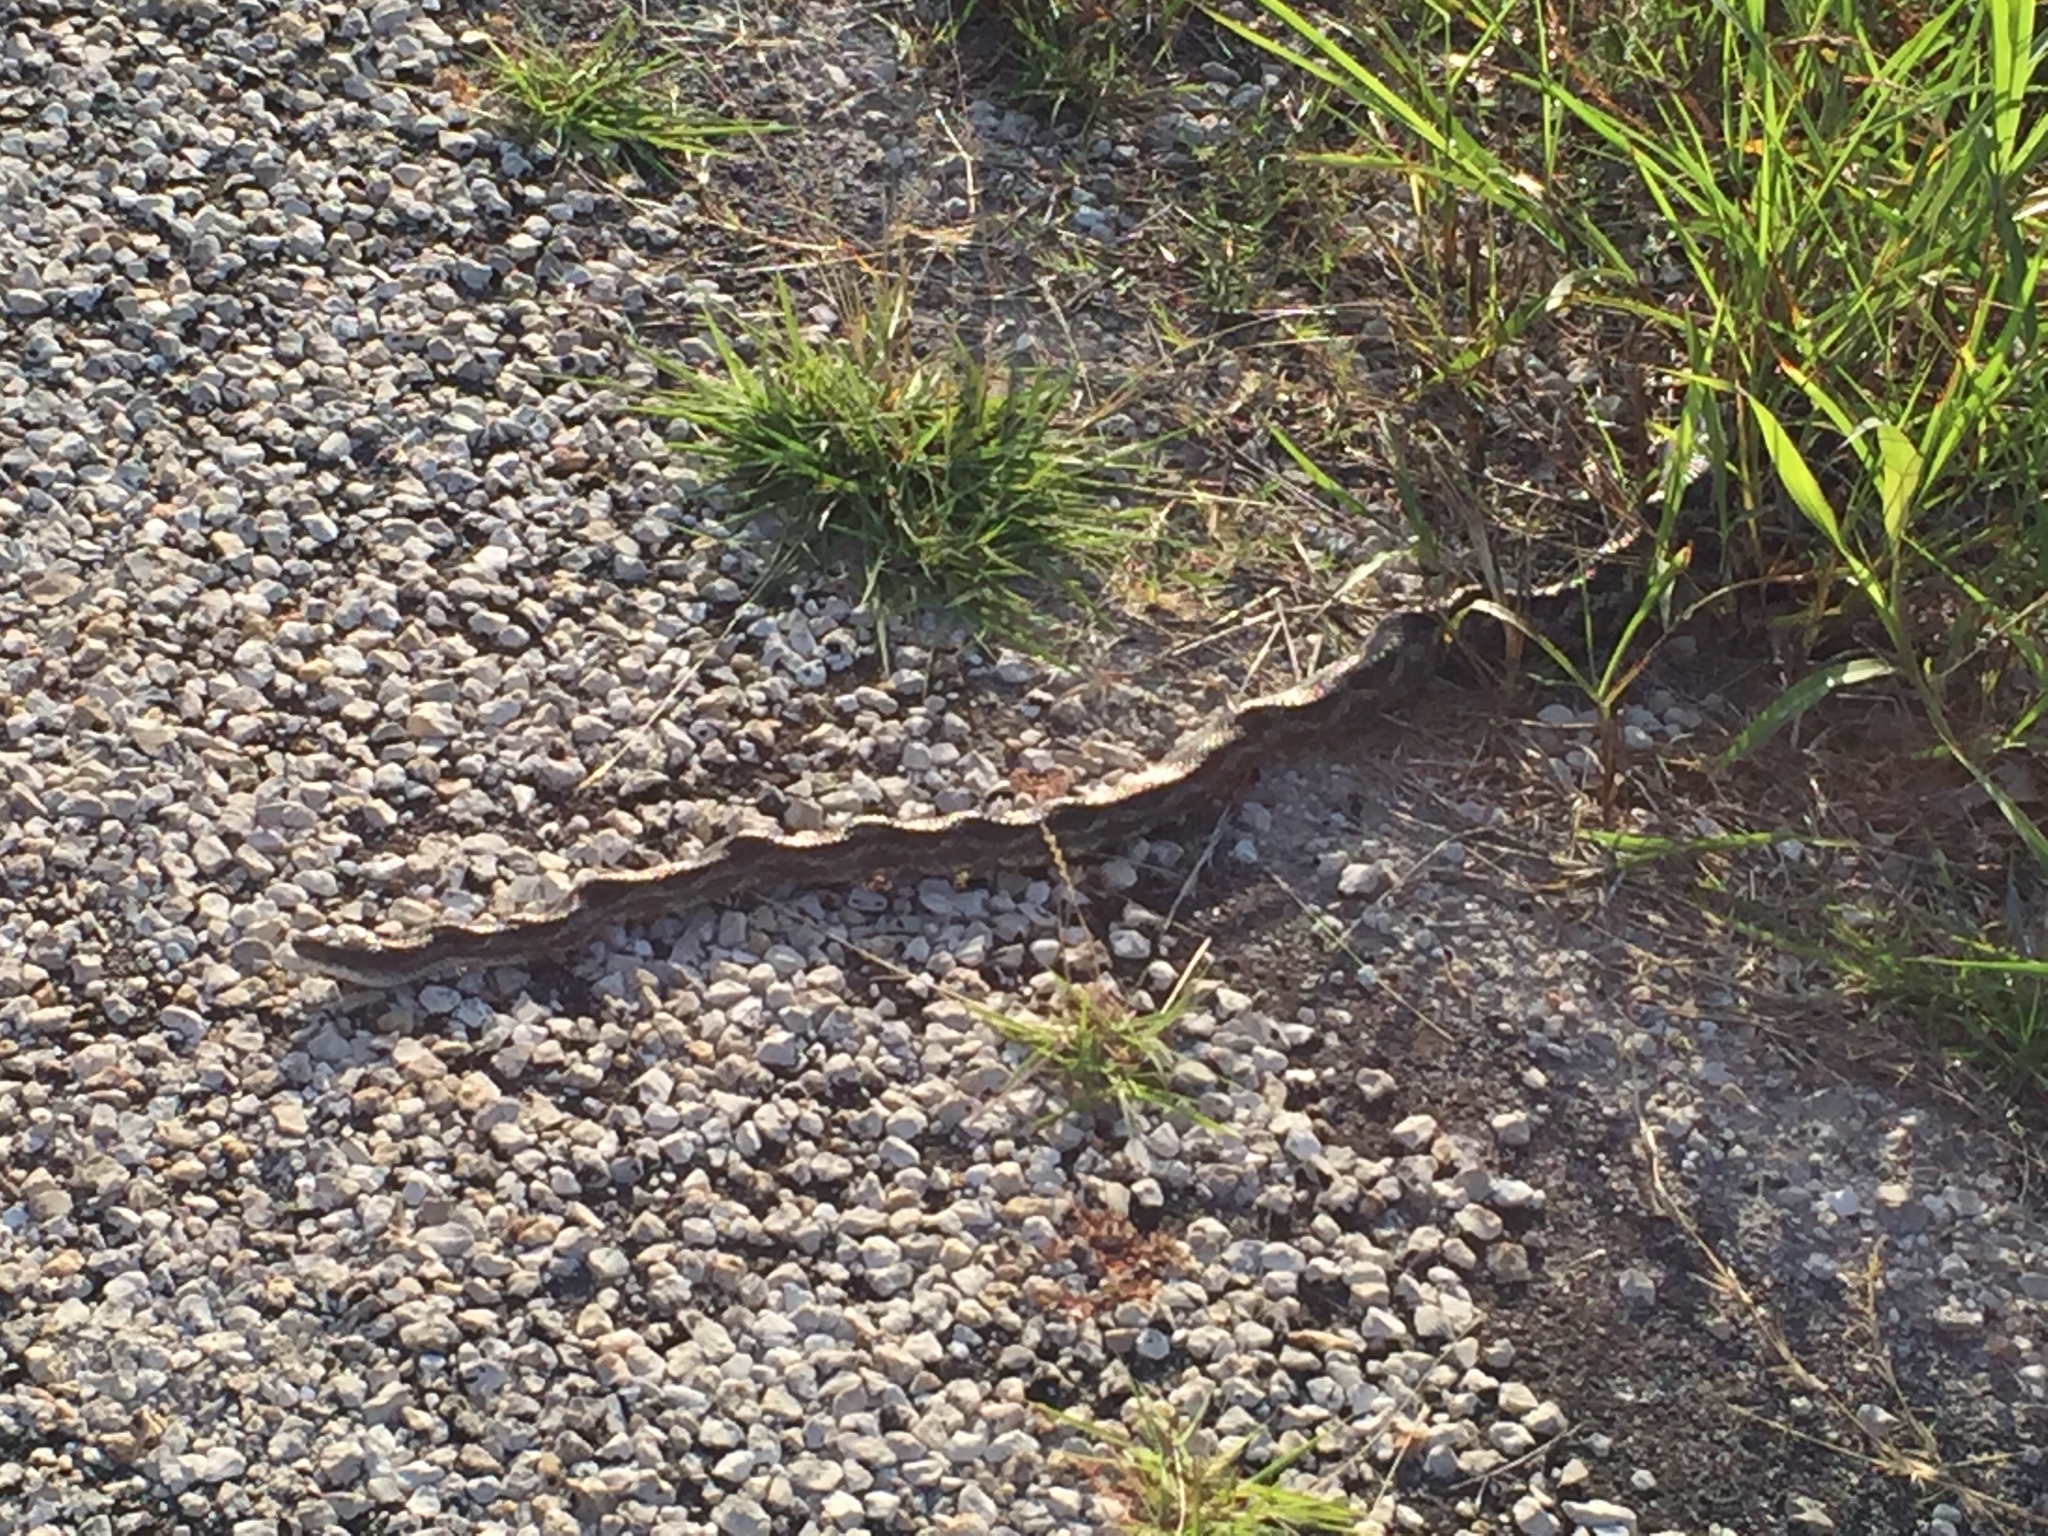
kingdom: Animalia
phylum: Chordata
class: Squamata
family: Colubridae
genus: Pantherophis
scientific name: Pantherophis obsoletus
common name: Black rat snake
